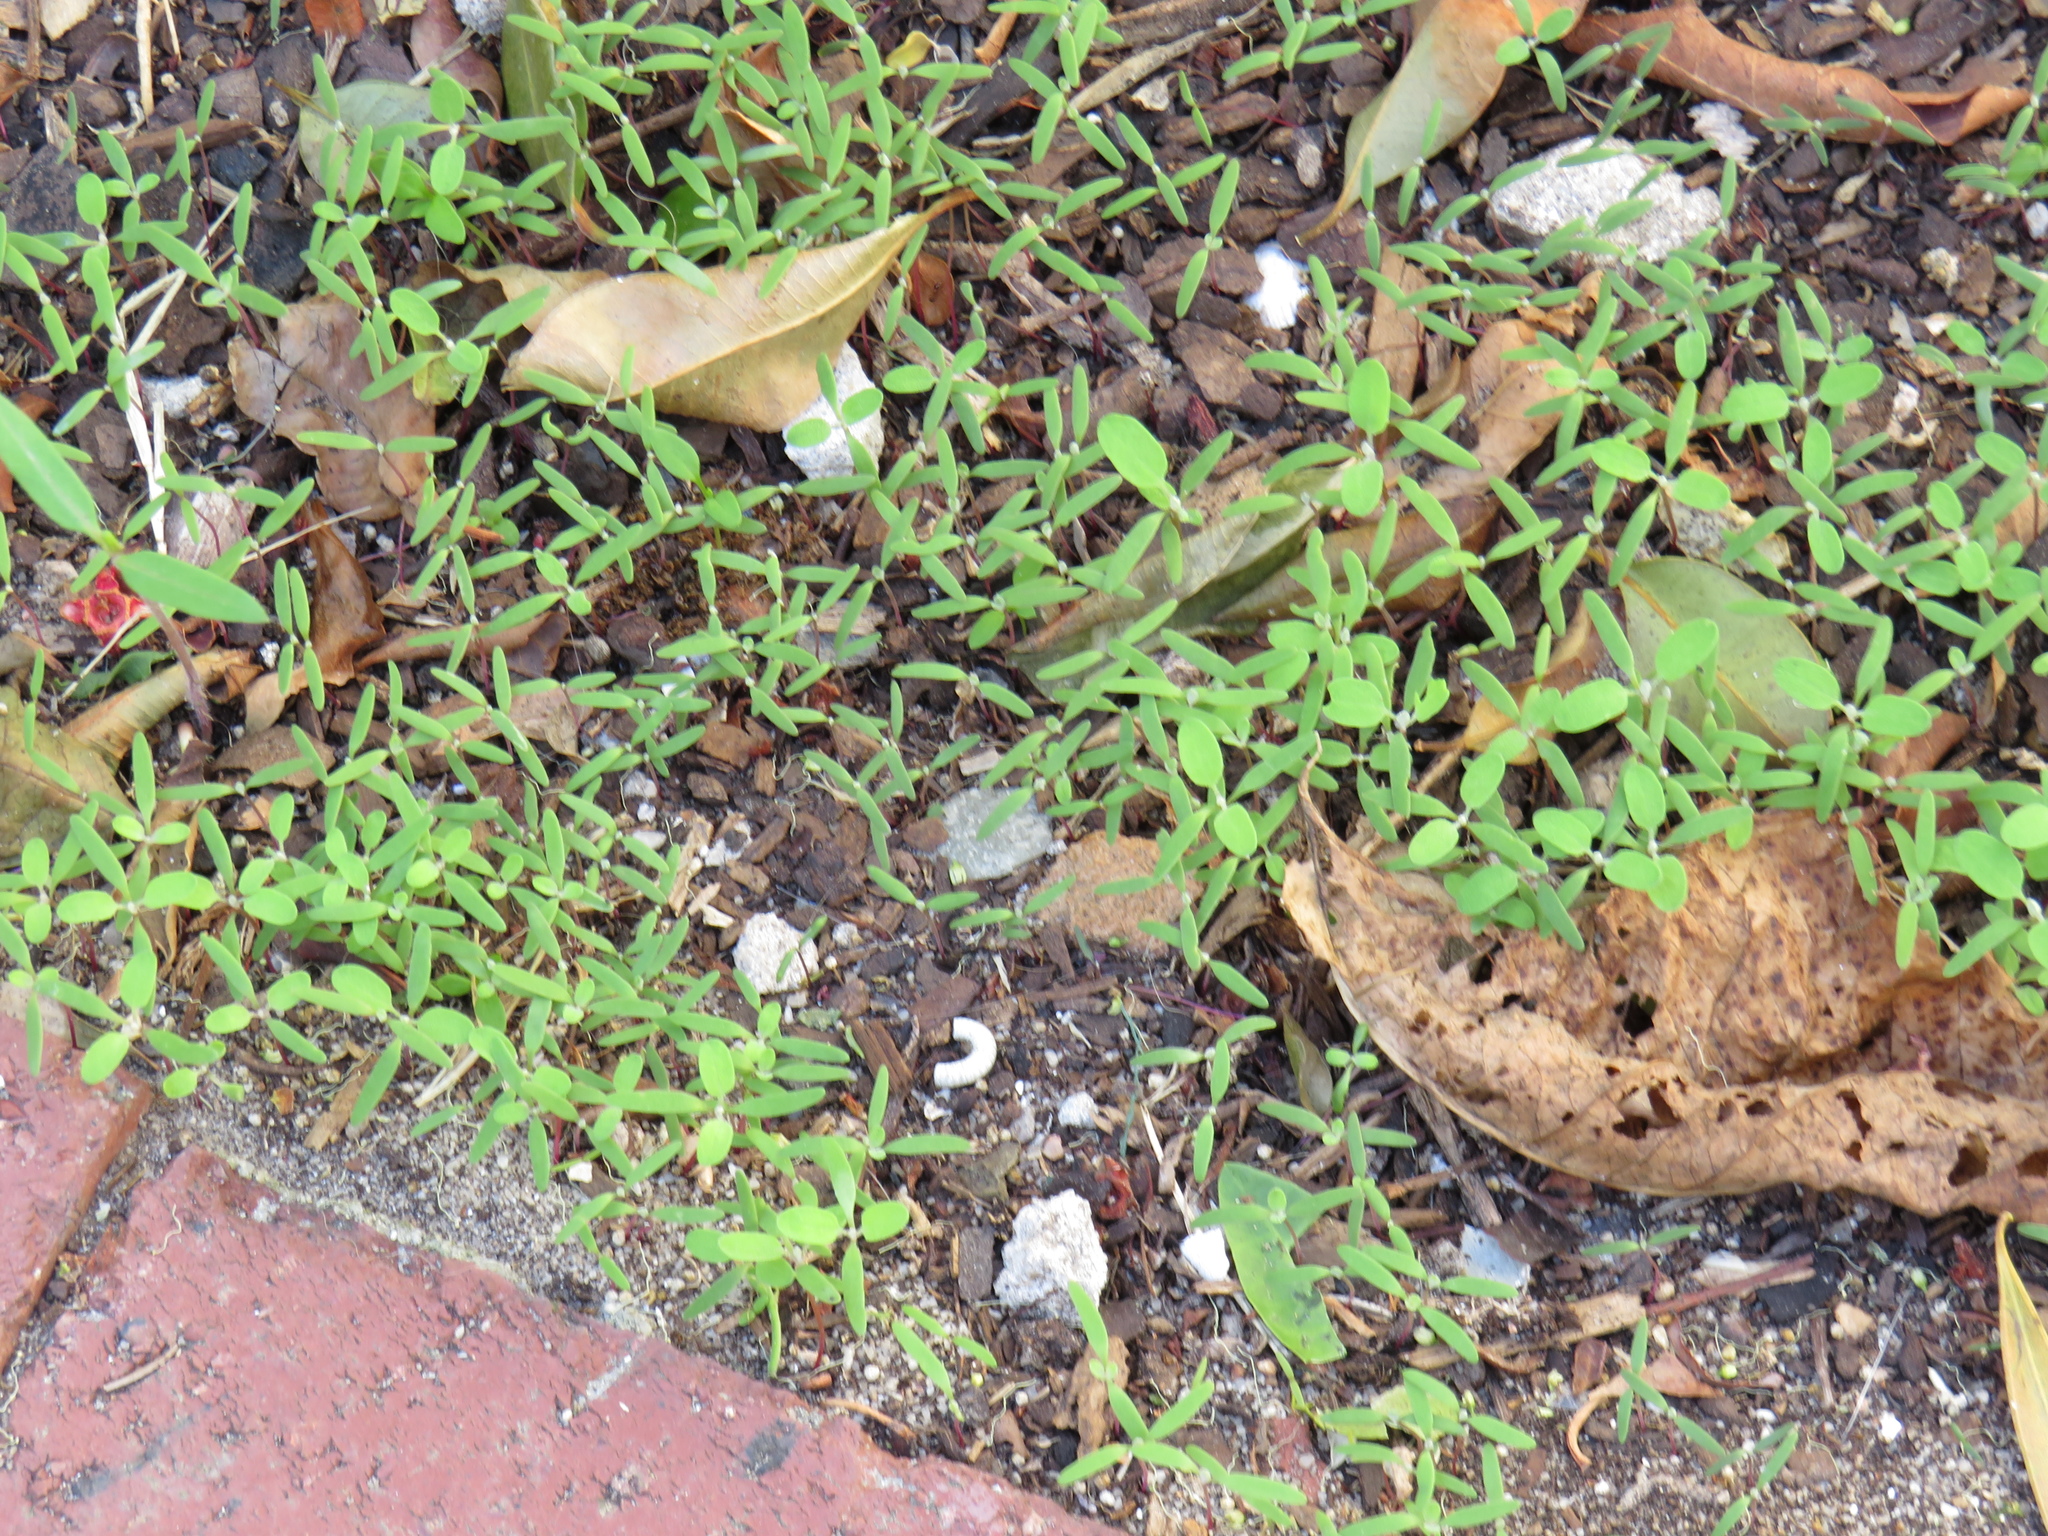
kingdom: Plantae
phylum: Tracheophyta
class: Magnoliopsida
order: Caryophyllales
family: Amaranthaceae
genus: Chenopodium
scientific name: Chenopodium album
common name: Fat-hen
